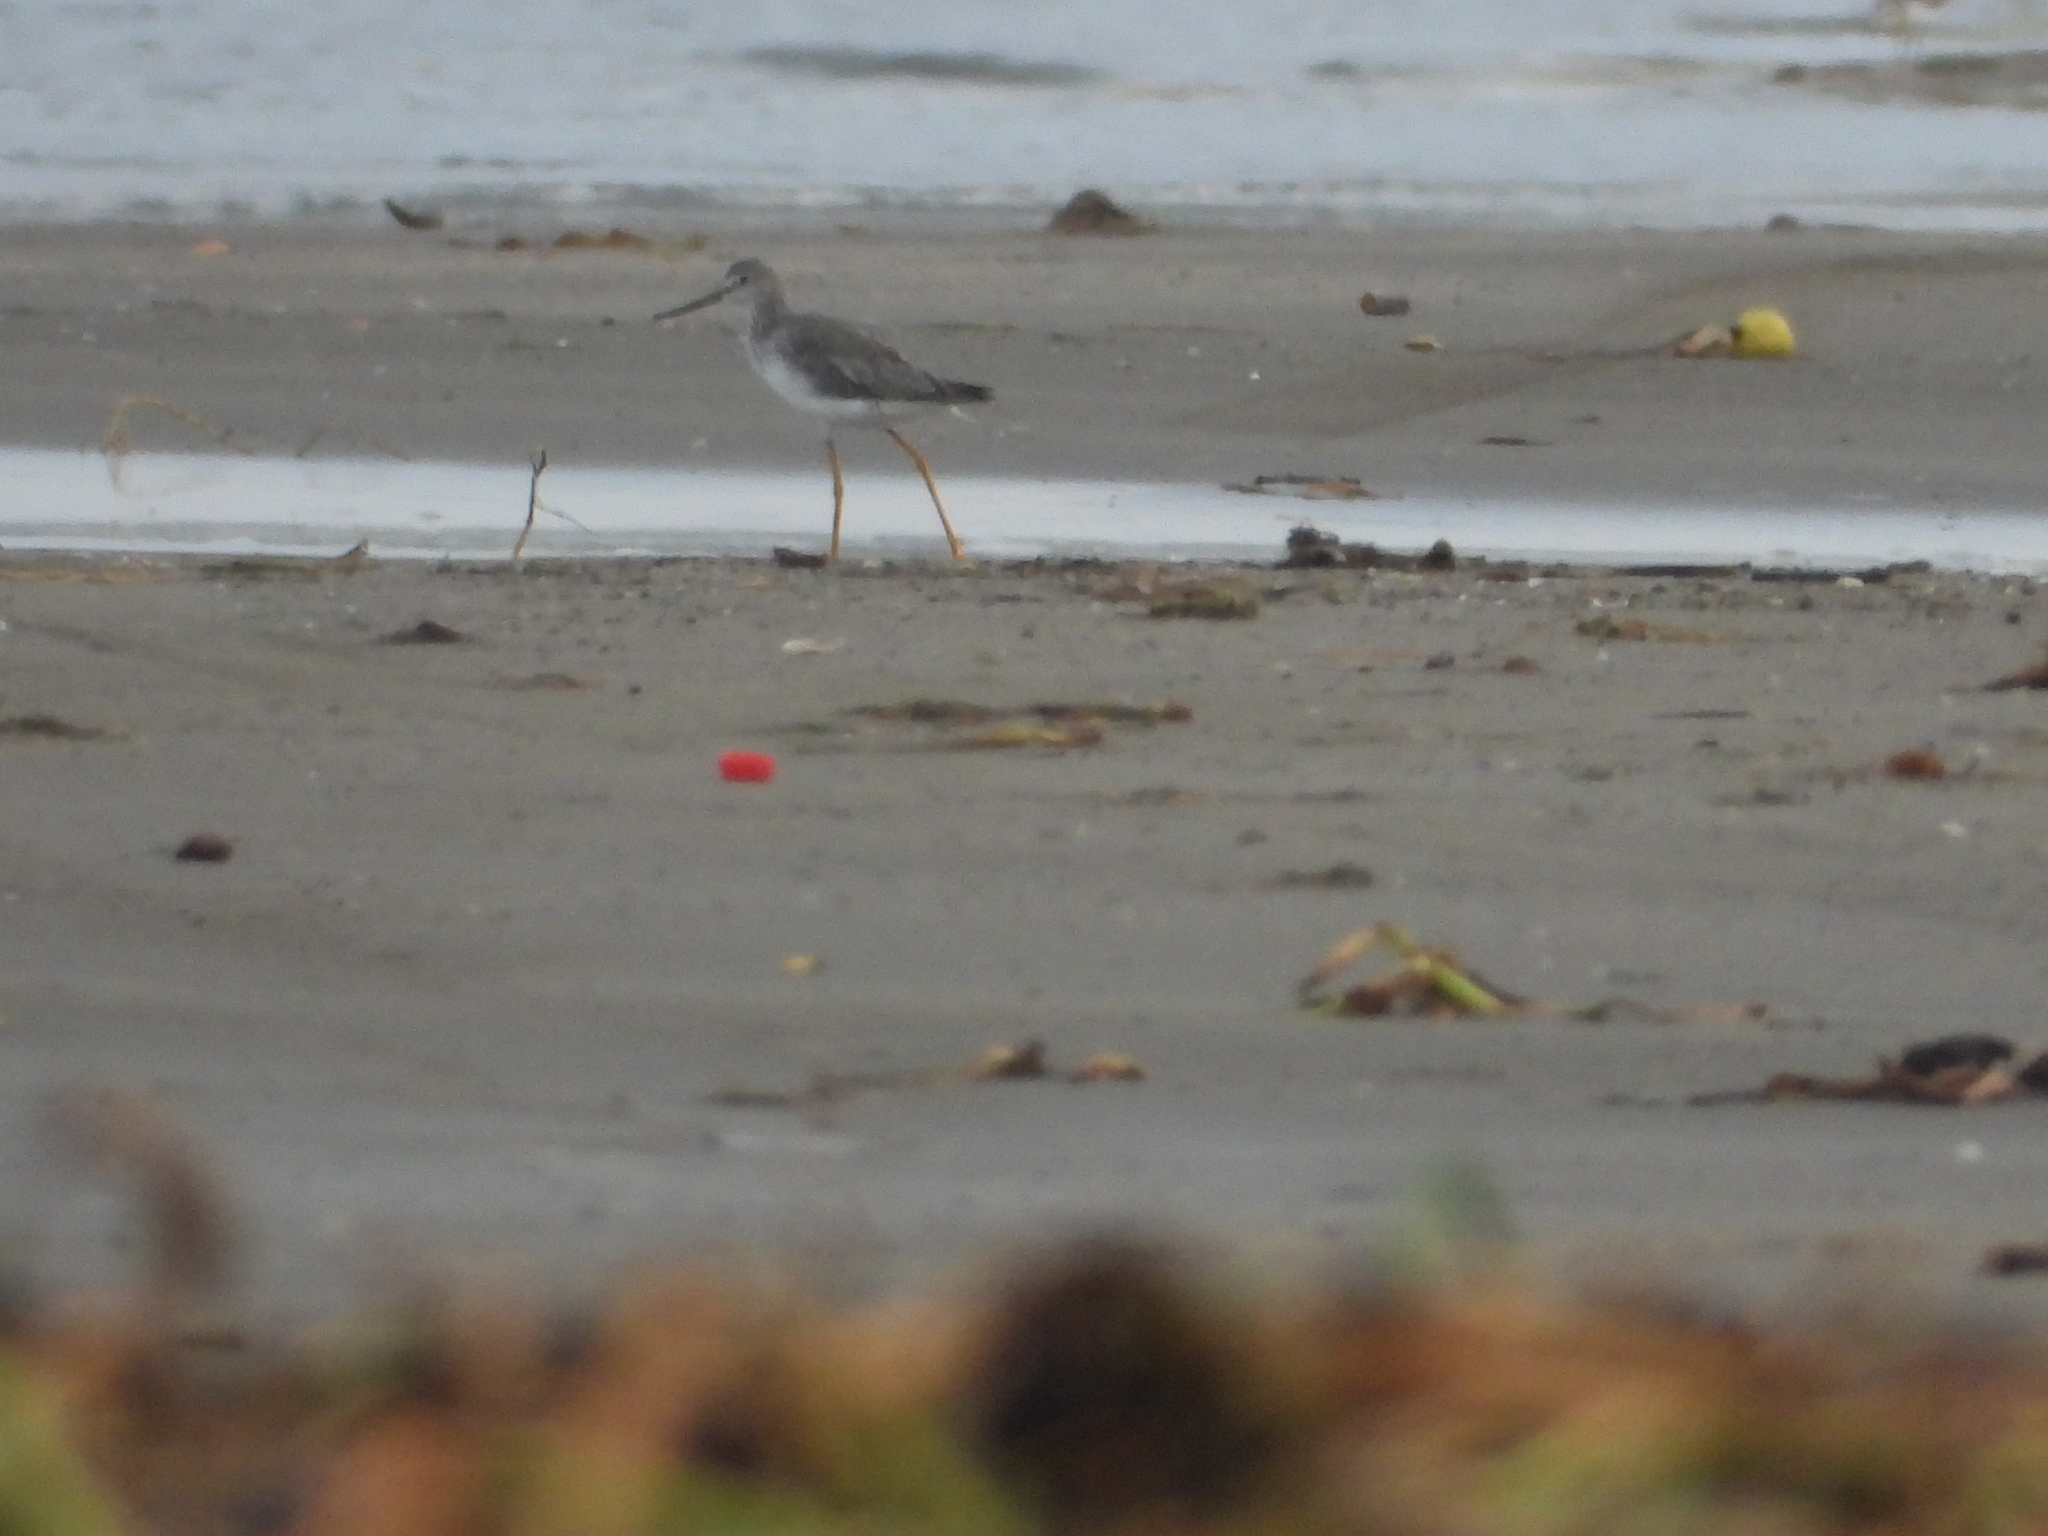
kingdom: Animalia
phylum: Chordata
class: Aves
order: Charadriiformes
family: Scolopacidae
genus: Tringa
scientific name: Tringa melanoleuca
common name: Greater yellowlegs
